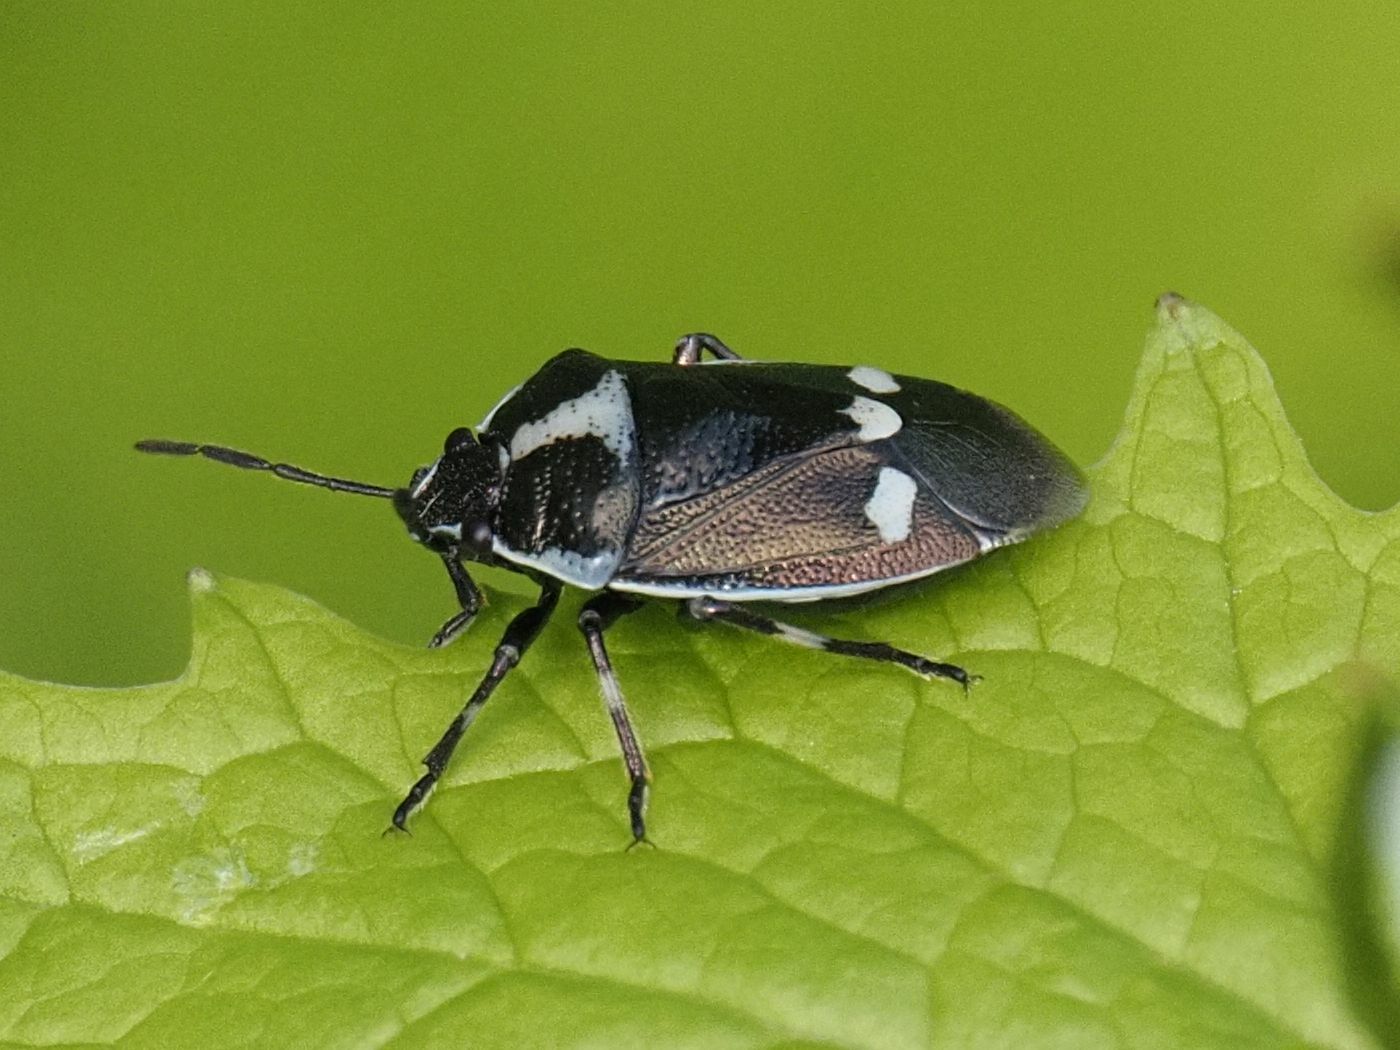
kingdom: Animalia
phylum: Arthropoda
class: Insecta
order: Hemiptera
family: Pentatomidae
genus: Eurydema
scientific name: Eurydema oleracea
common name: Cabbage bug
